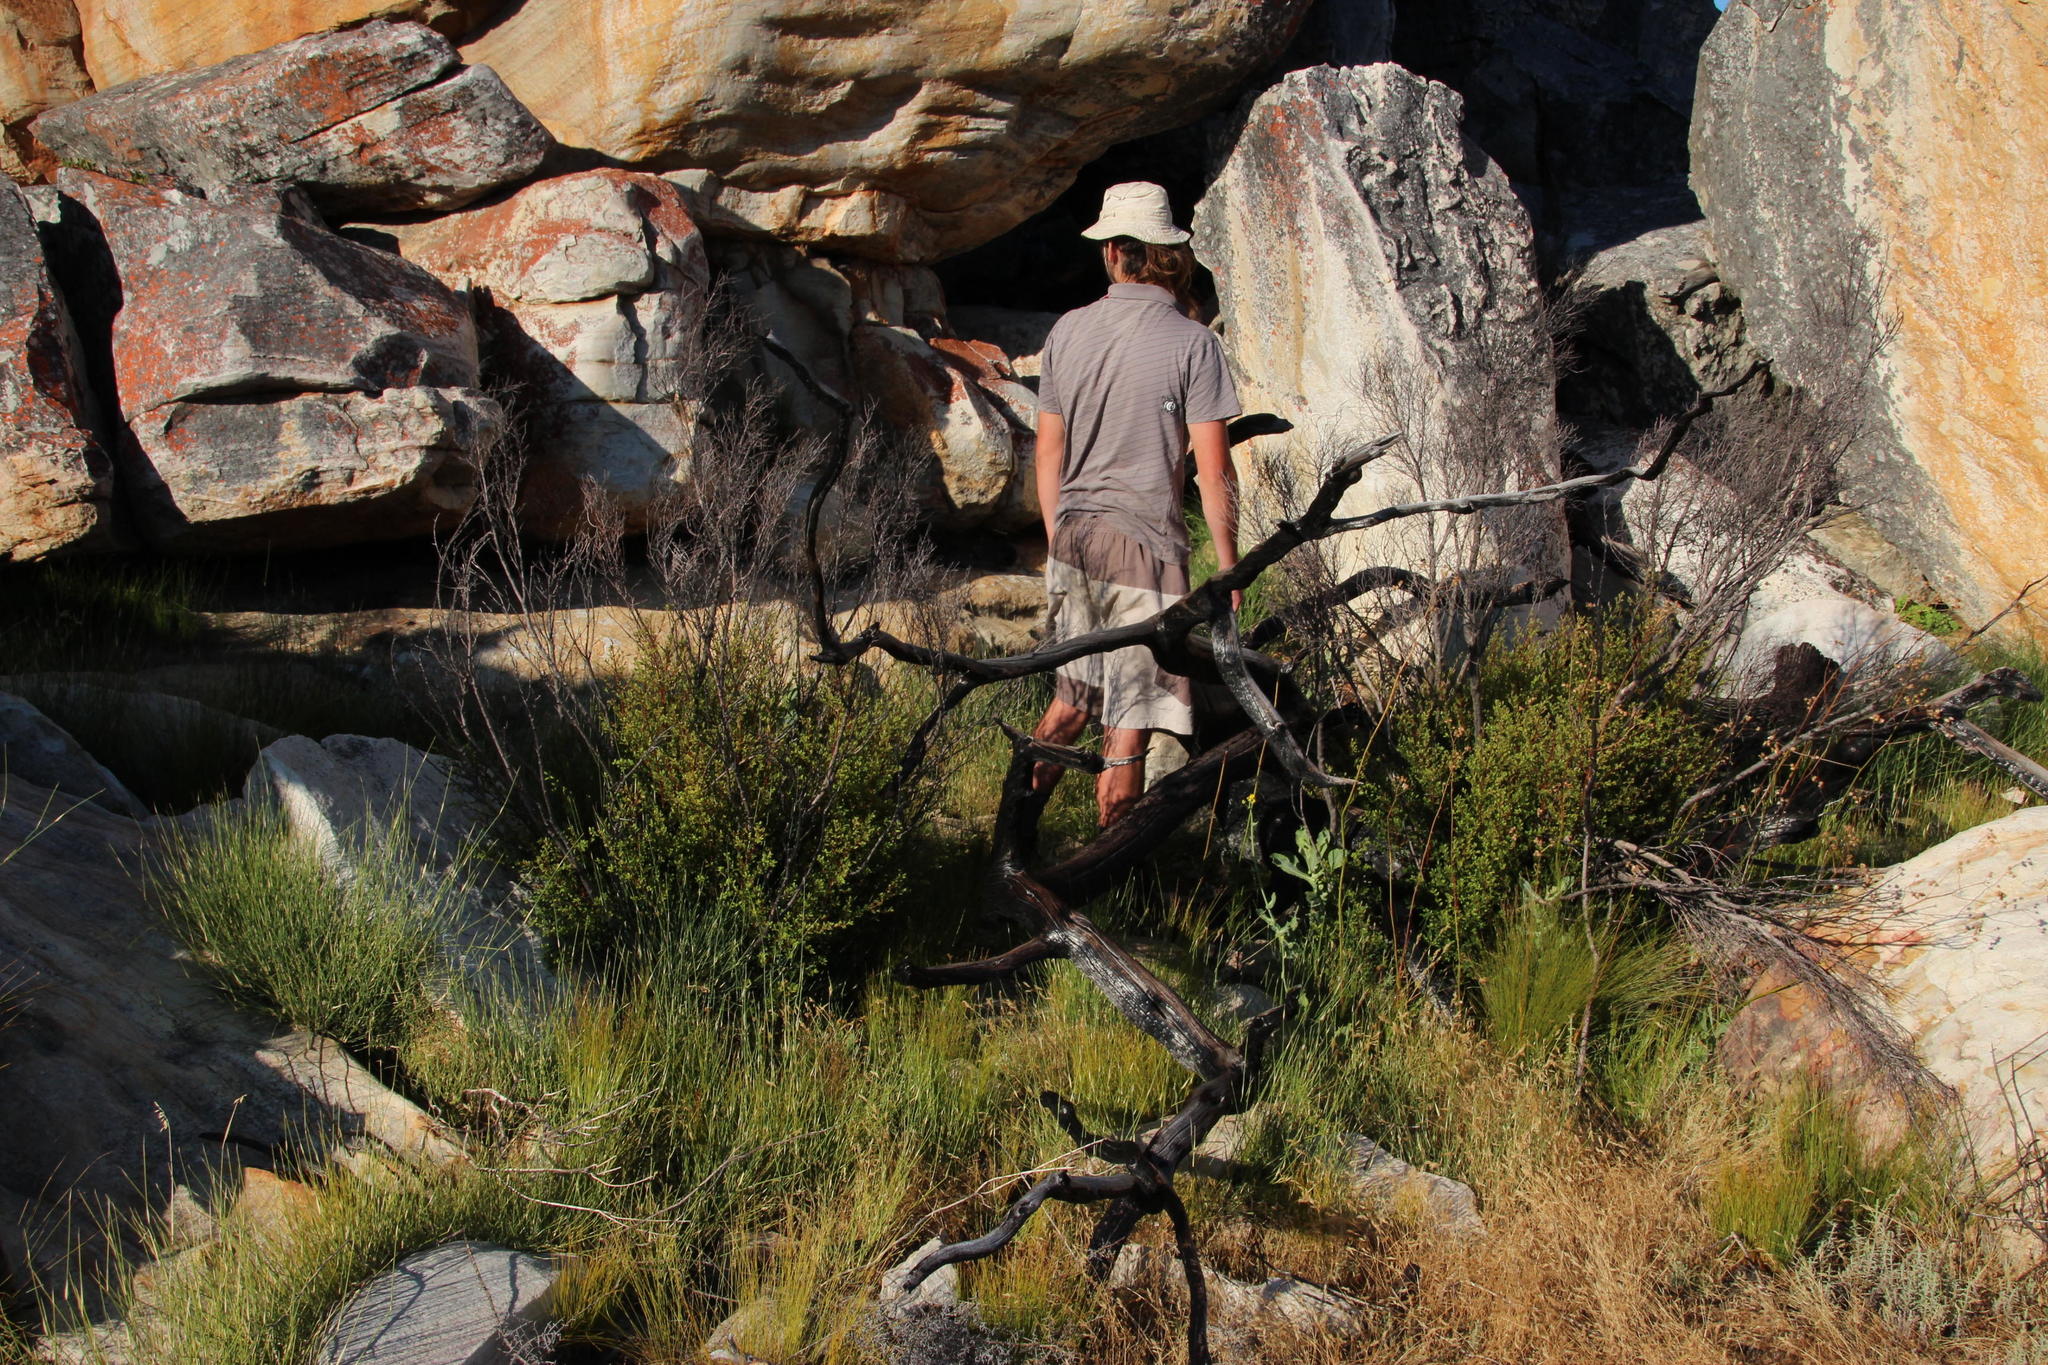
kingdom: Plantae
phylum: Tracheophyta
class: Magnoliopsida
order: Ericales
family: Ebenaceae
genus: Diospyros
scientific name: Diospyros glabra
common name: Fynbos star apple
